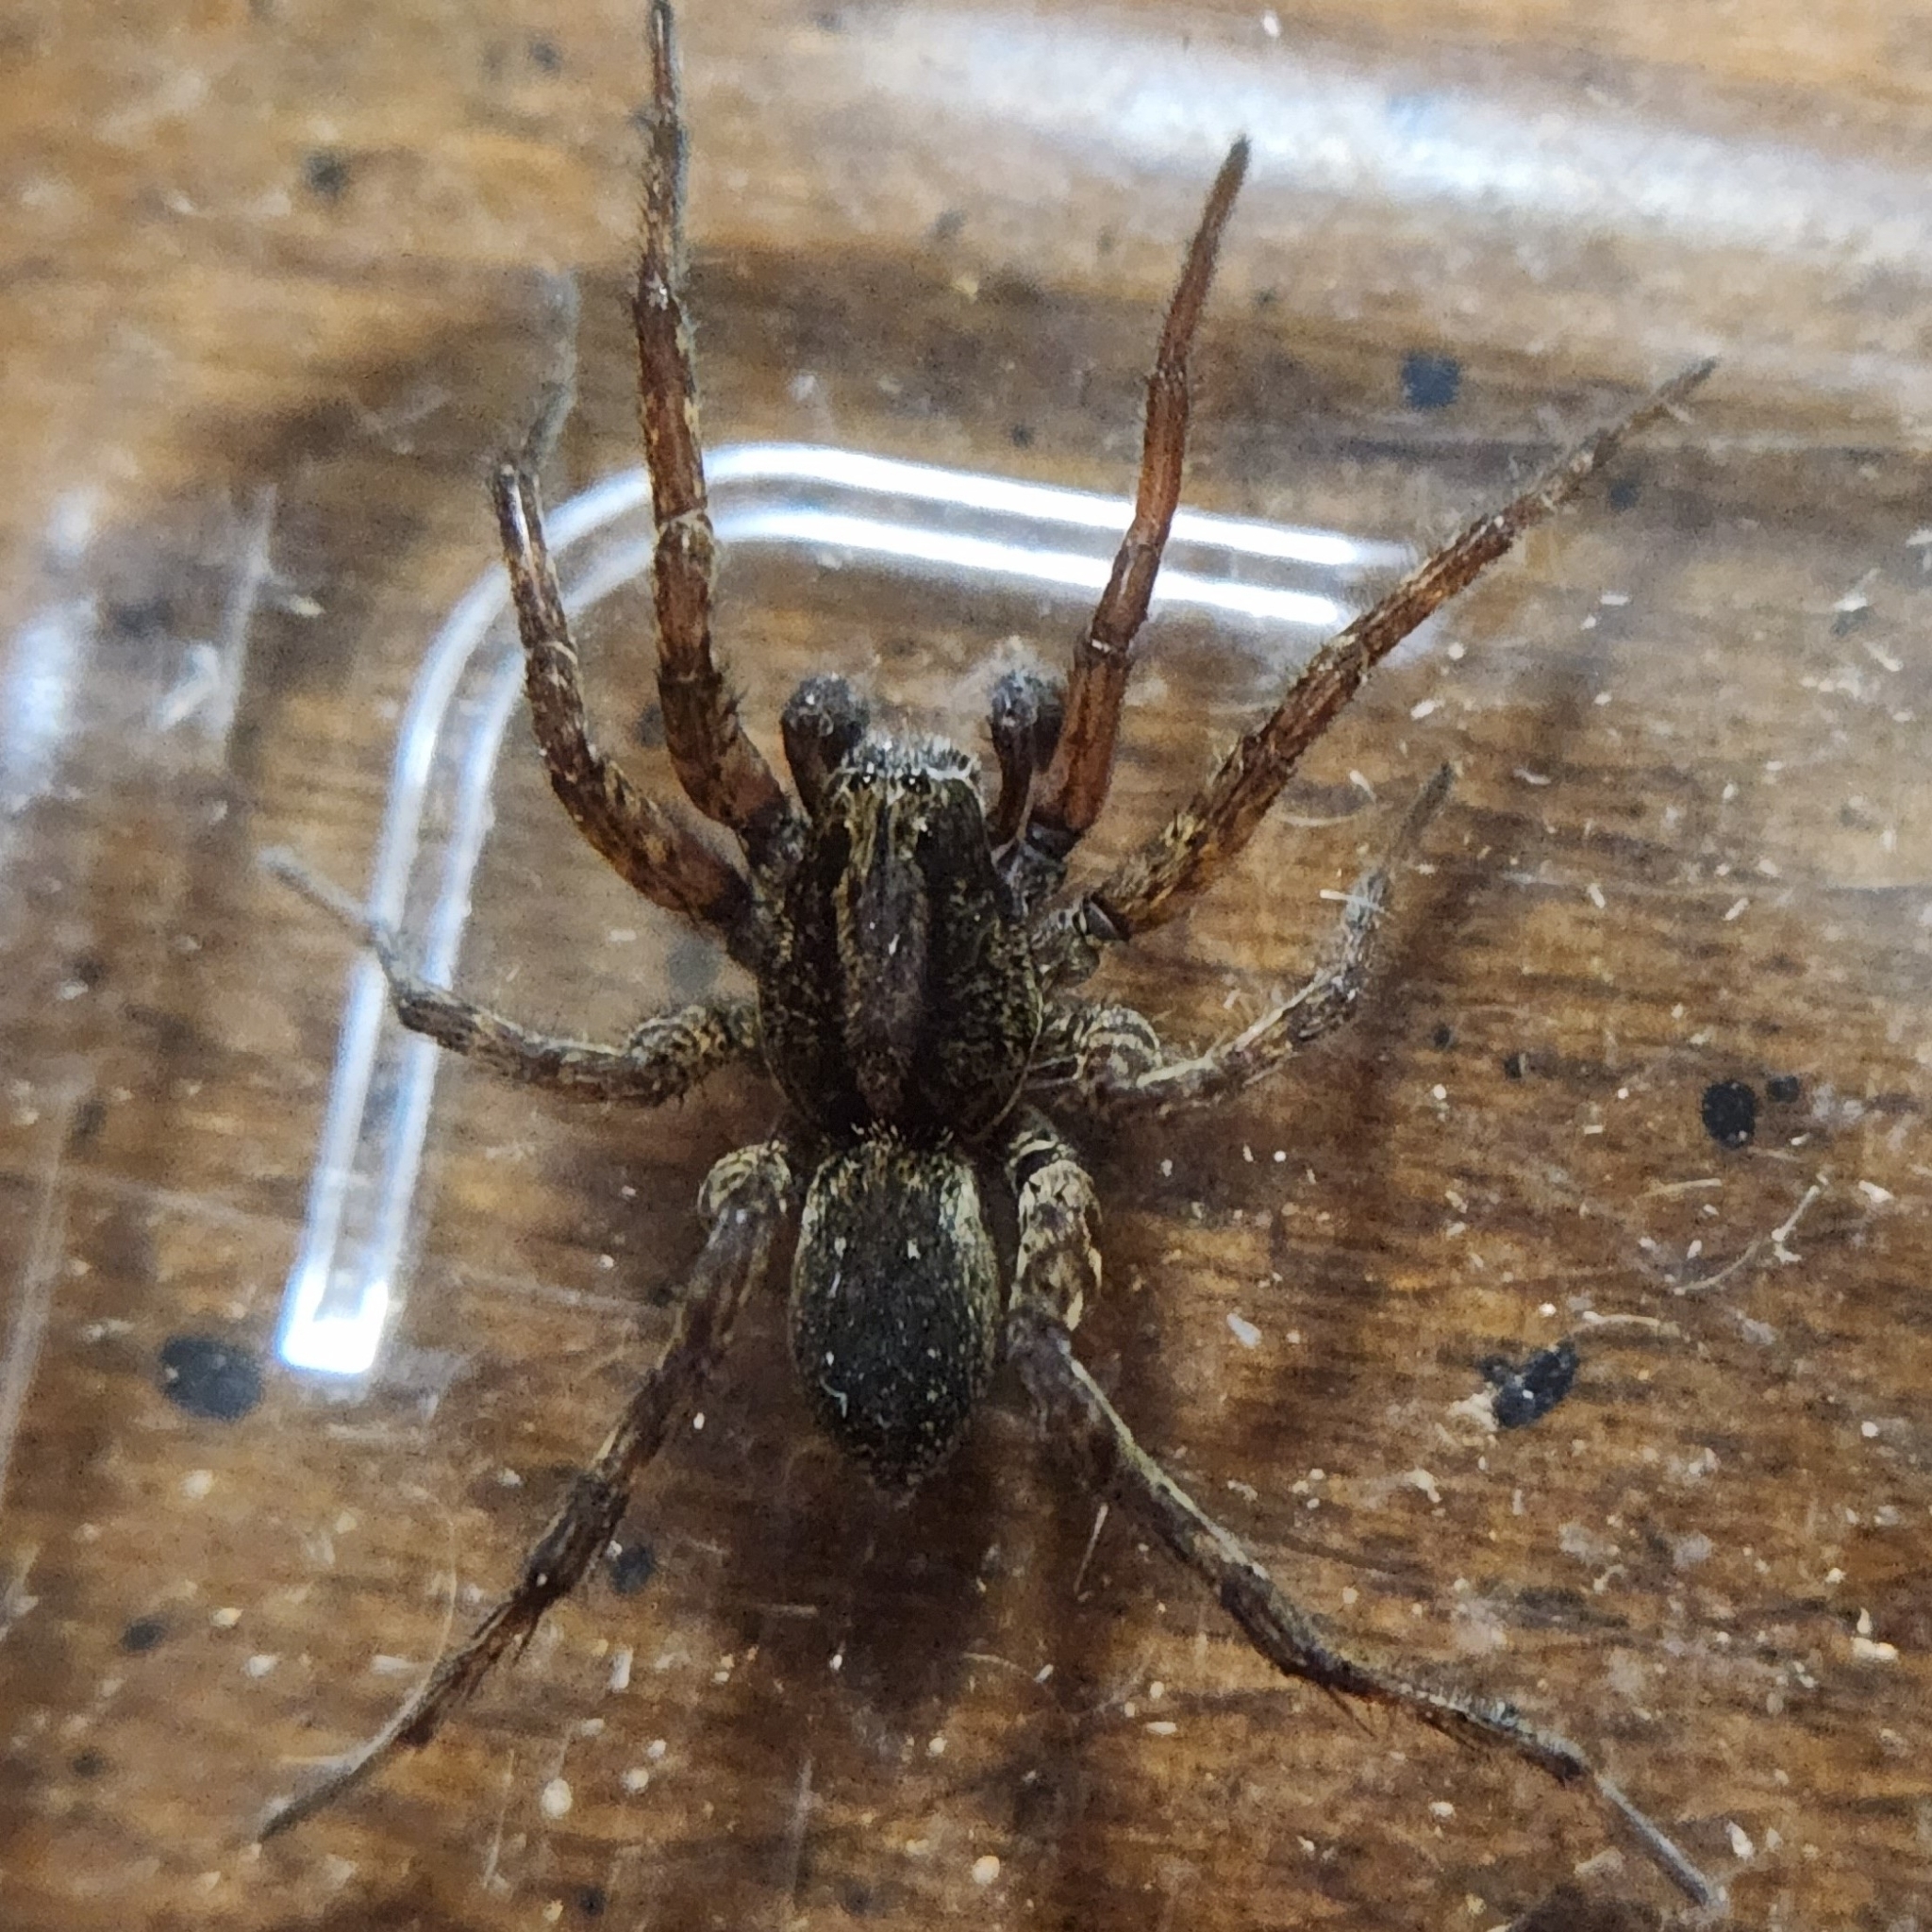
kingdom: Animalia
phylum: Arthropoda
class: Arachnida
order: Araneae
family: Lycosidae
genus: Gladicosa
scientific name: Gladicosa gulosa
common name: Drumming sword wolf spider
